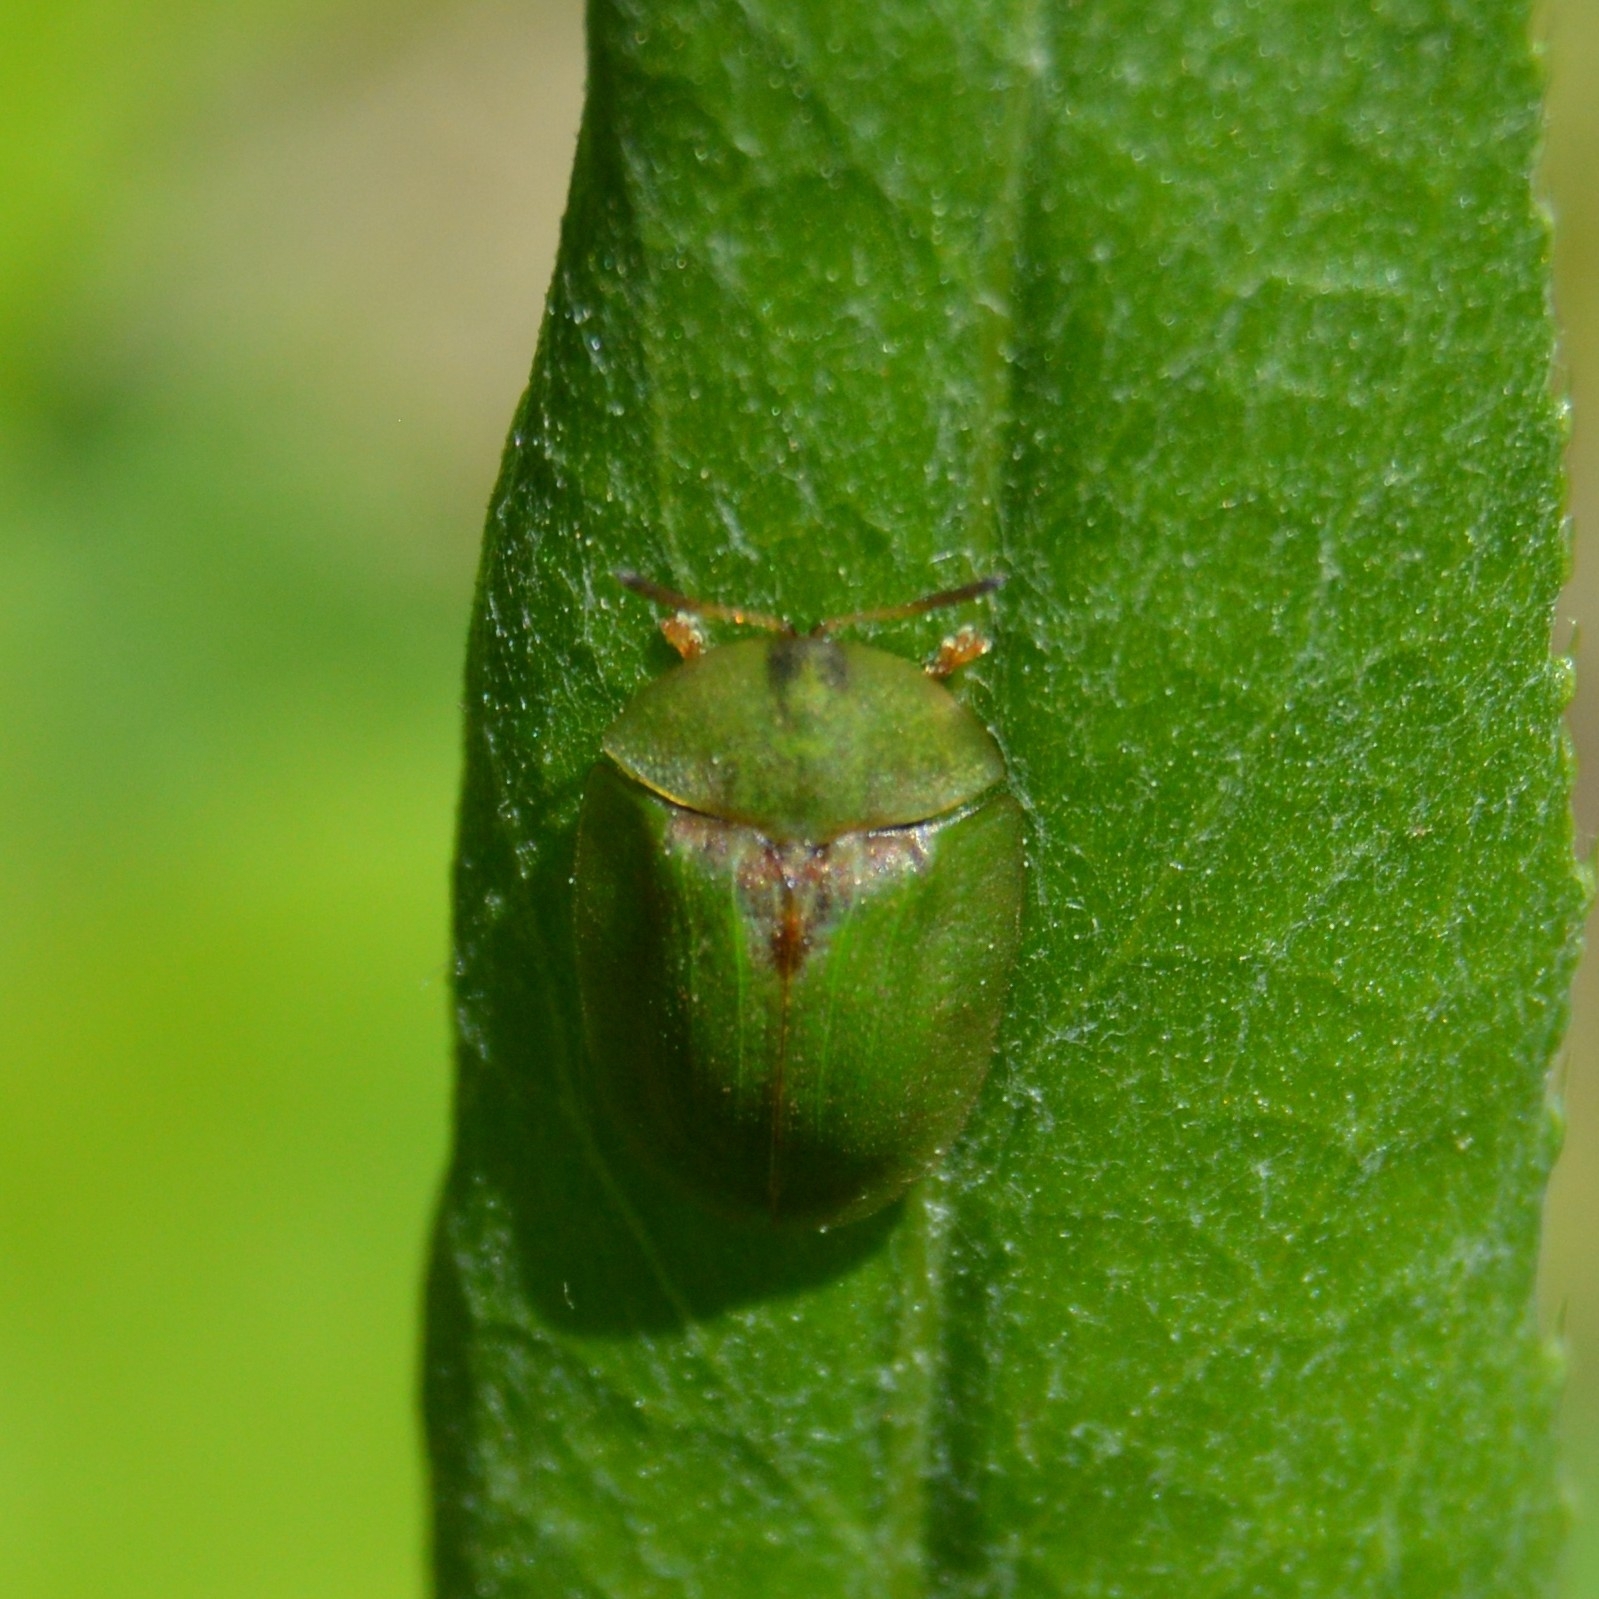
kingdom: Animalia
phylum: Arthropoda
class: Insecta
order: Coleoptera
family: Chrysomelidae
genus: Cassida
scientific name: Cassida rubiginosa
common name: Thistle tortoise beetle
